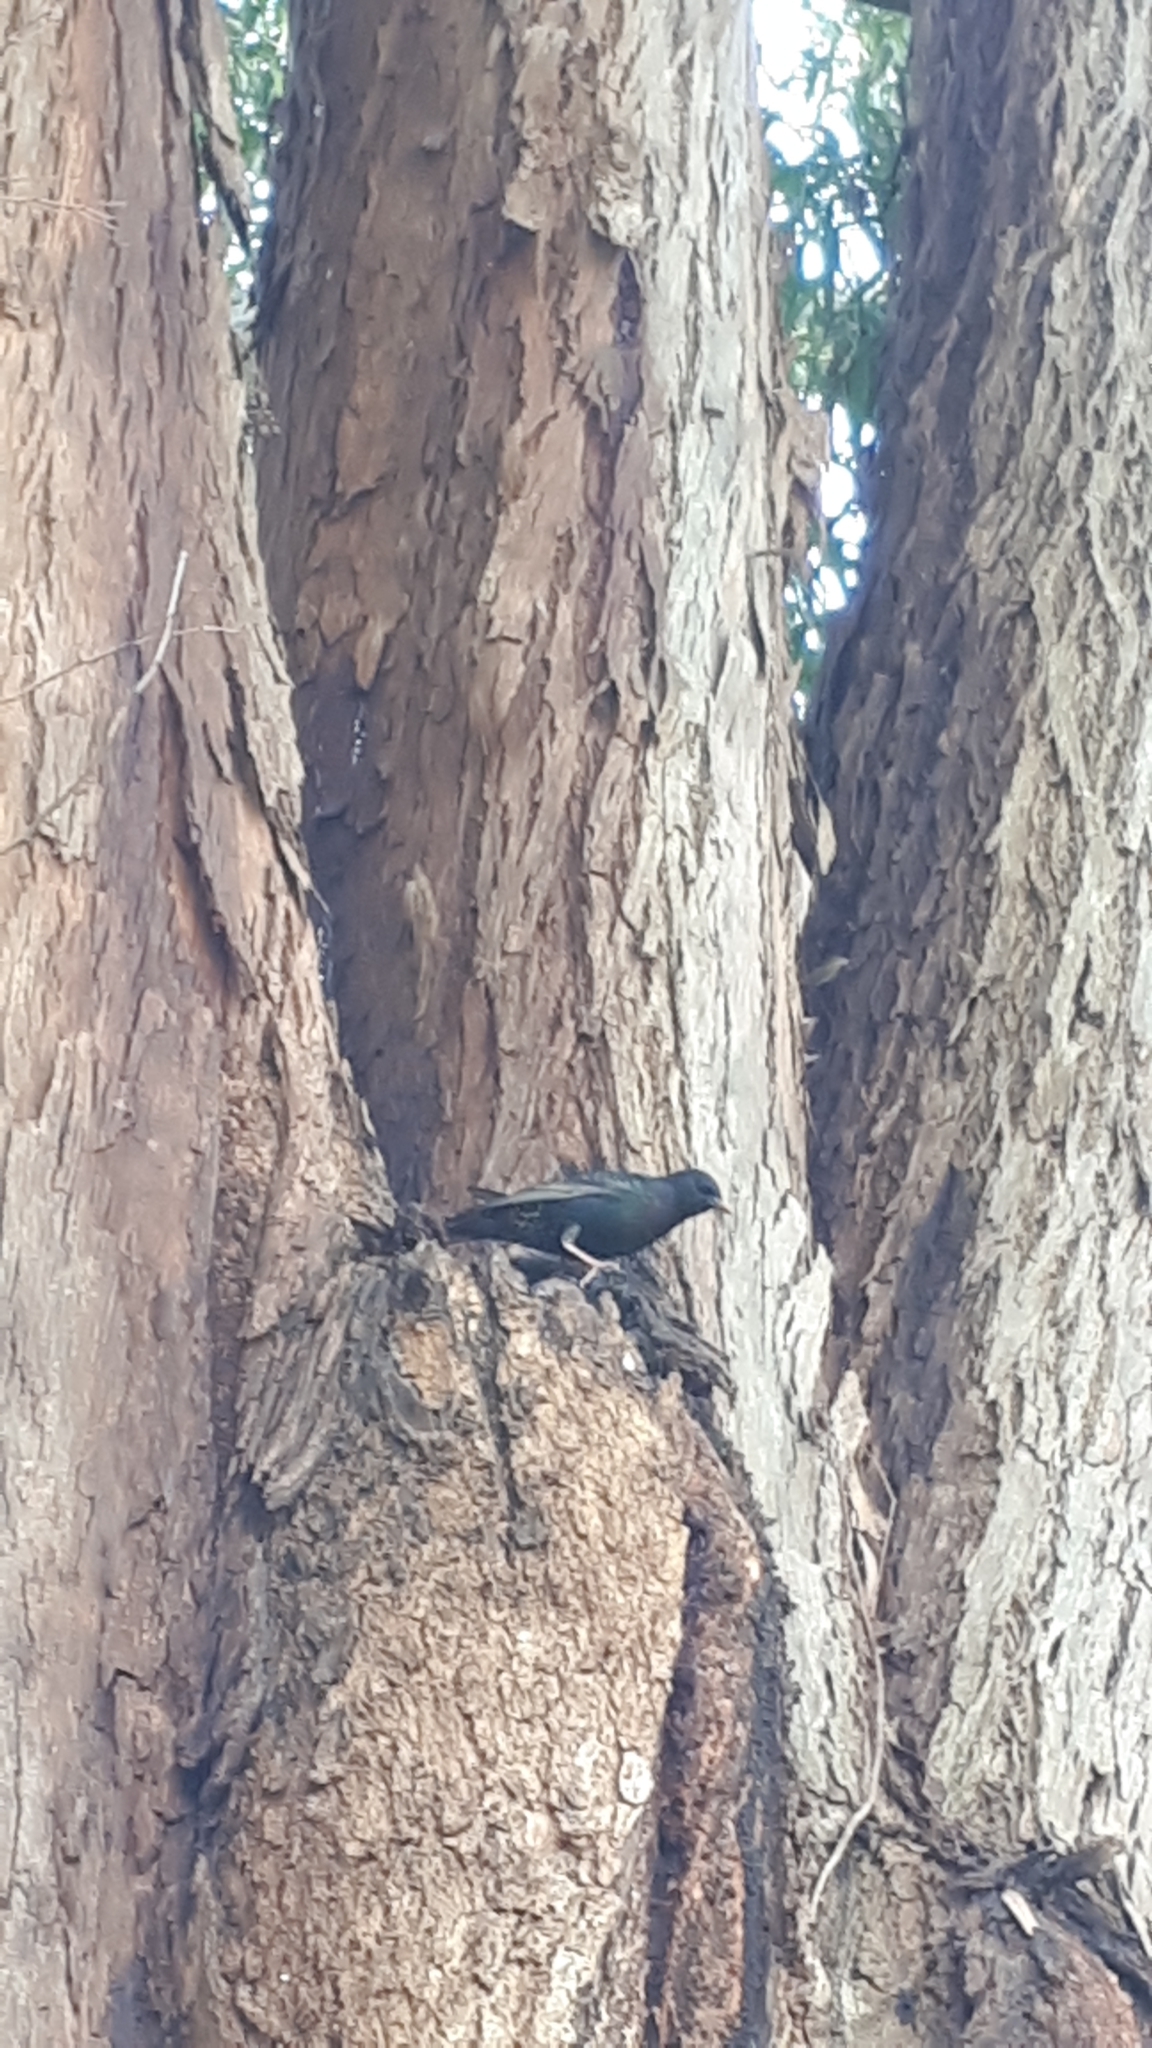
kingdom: Animalia
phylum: Chordata
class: Aves
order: Passeriformes
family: Sturnidae
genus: Sturnus
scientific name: Sturnus vulgaris
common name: Common starling
